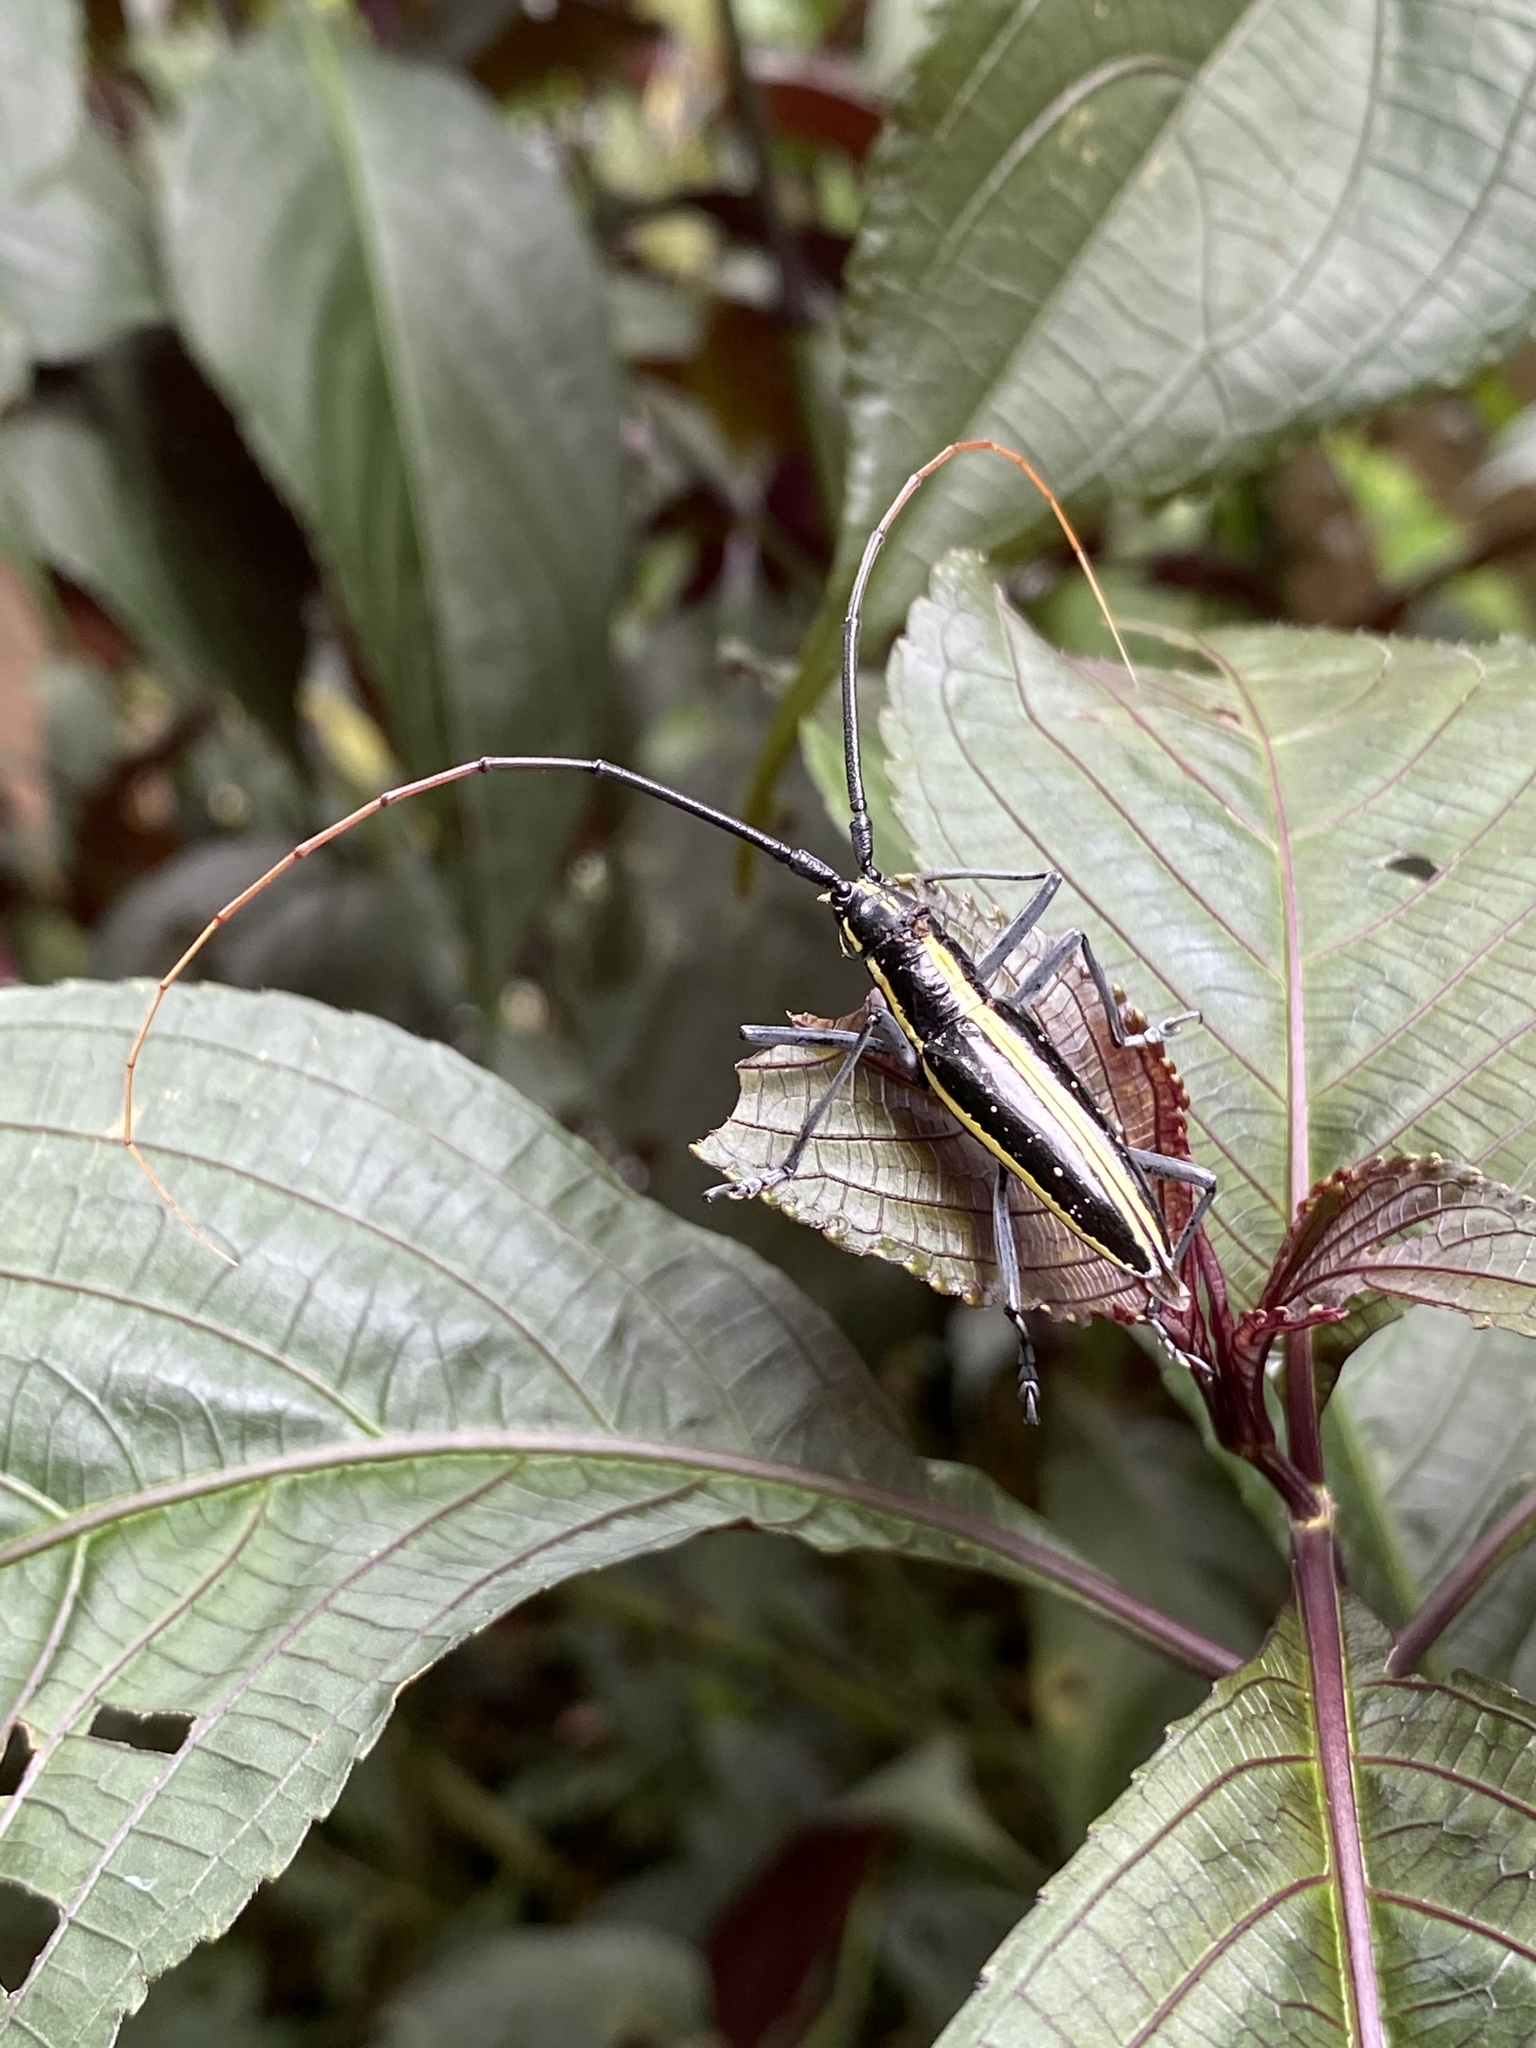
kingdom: Animalia
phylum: Arthropoda
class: Insecta
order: Coleoptera
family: Cerambycidae
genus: Ptychodes
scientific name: Ptychodes politus
